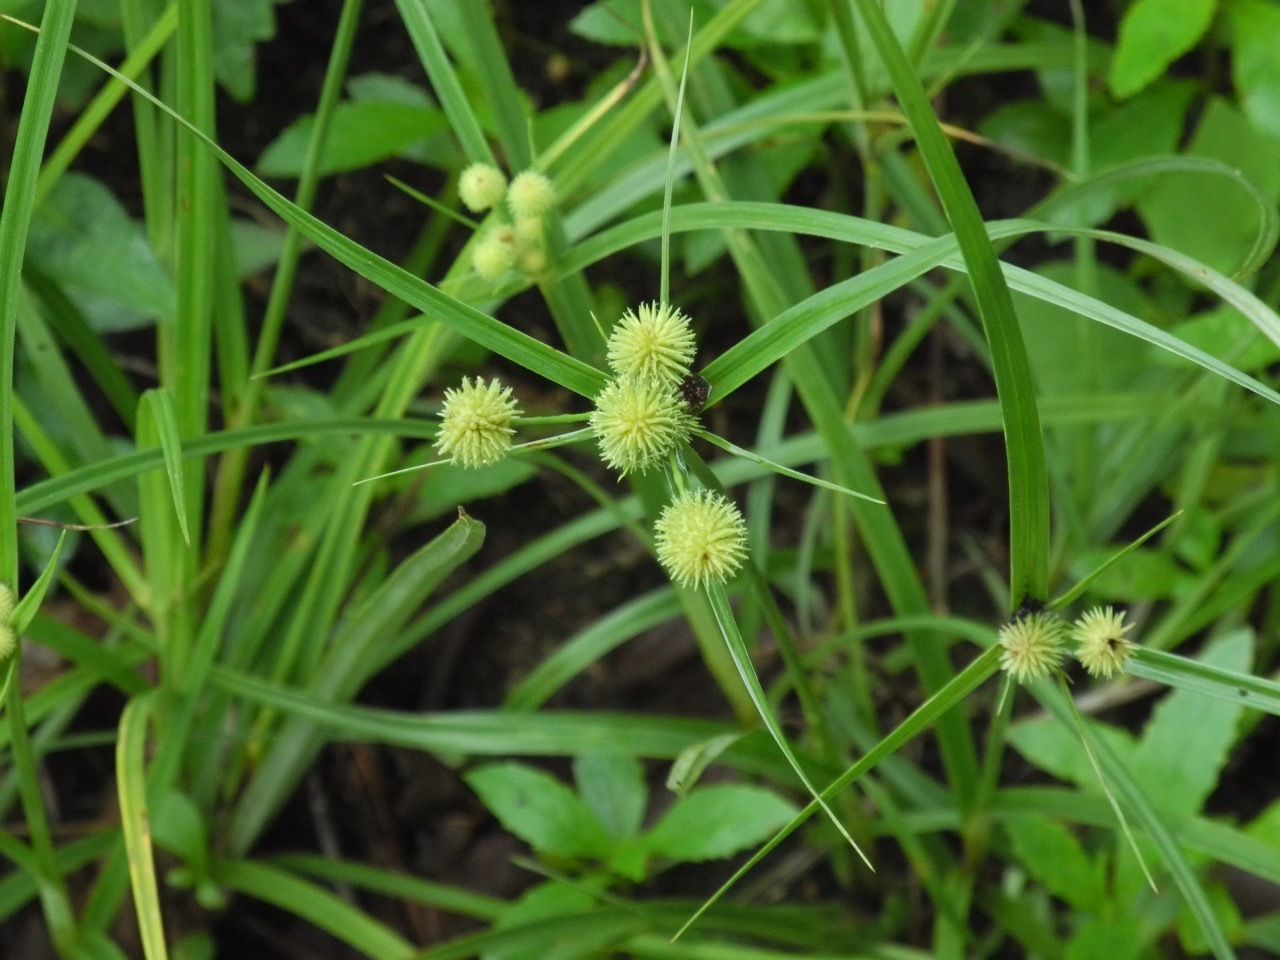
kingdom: Plantae
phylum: Tracheophyta
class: Liliopsida
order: Poales
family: Cyperaceae
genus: Cyperus
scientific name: Cyperus echinatus
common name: Teasel sedge
